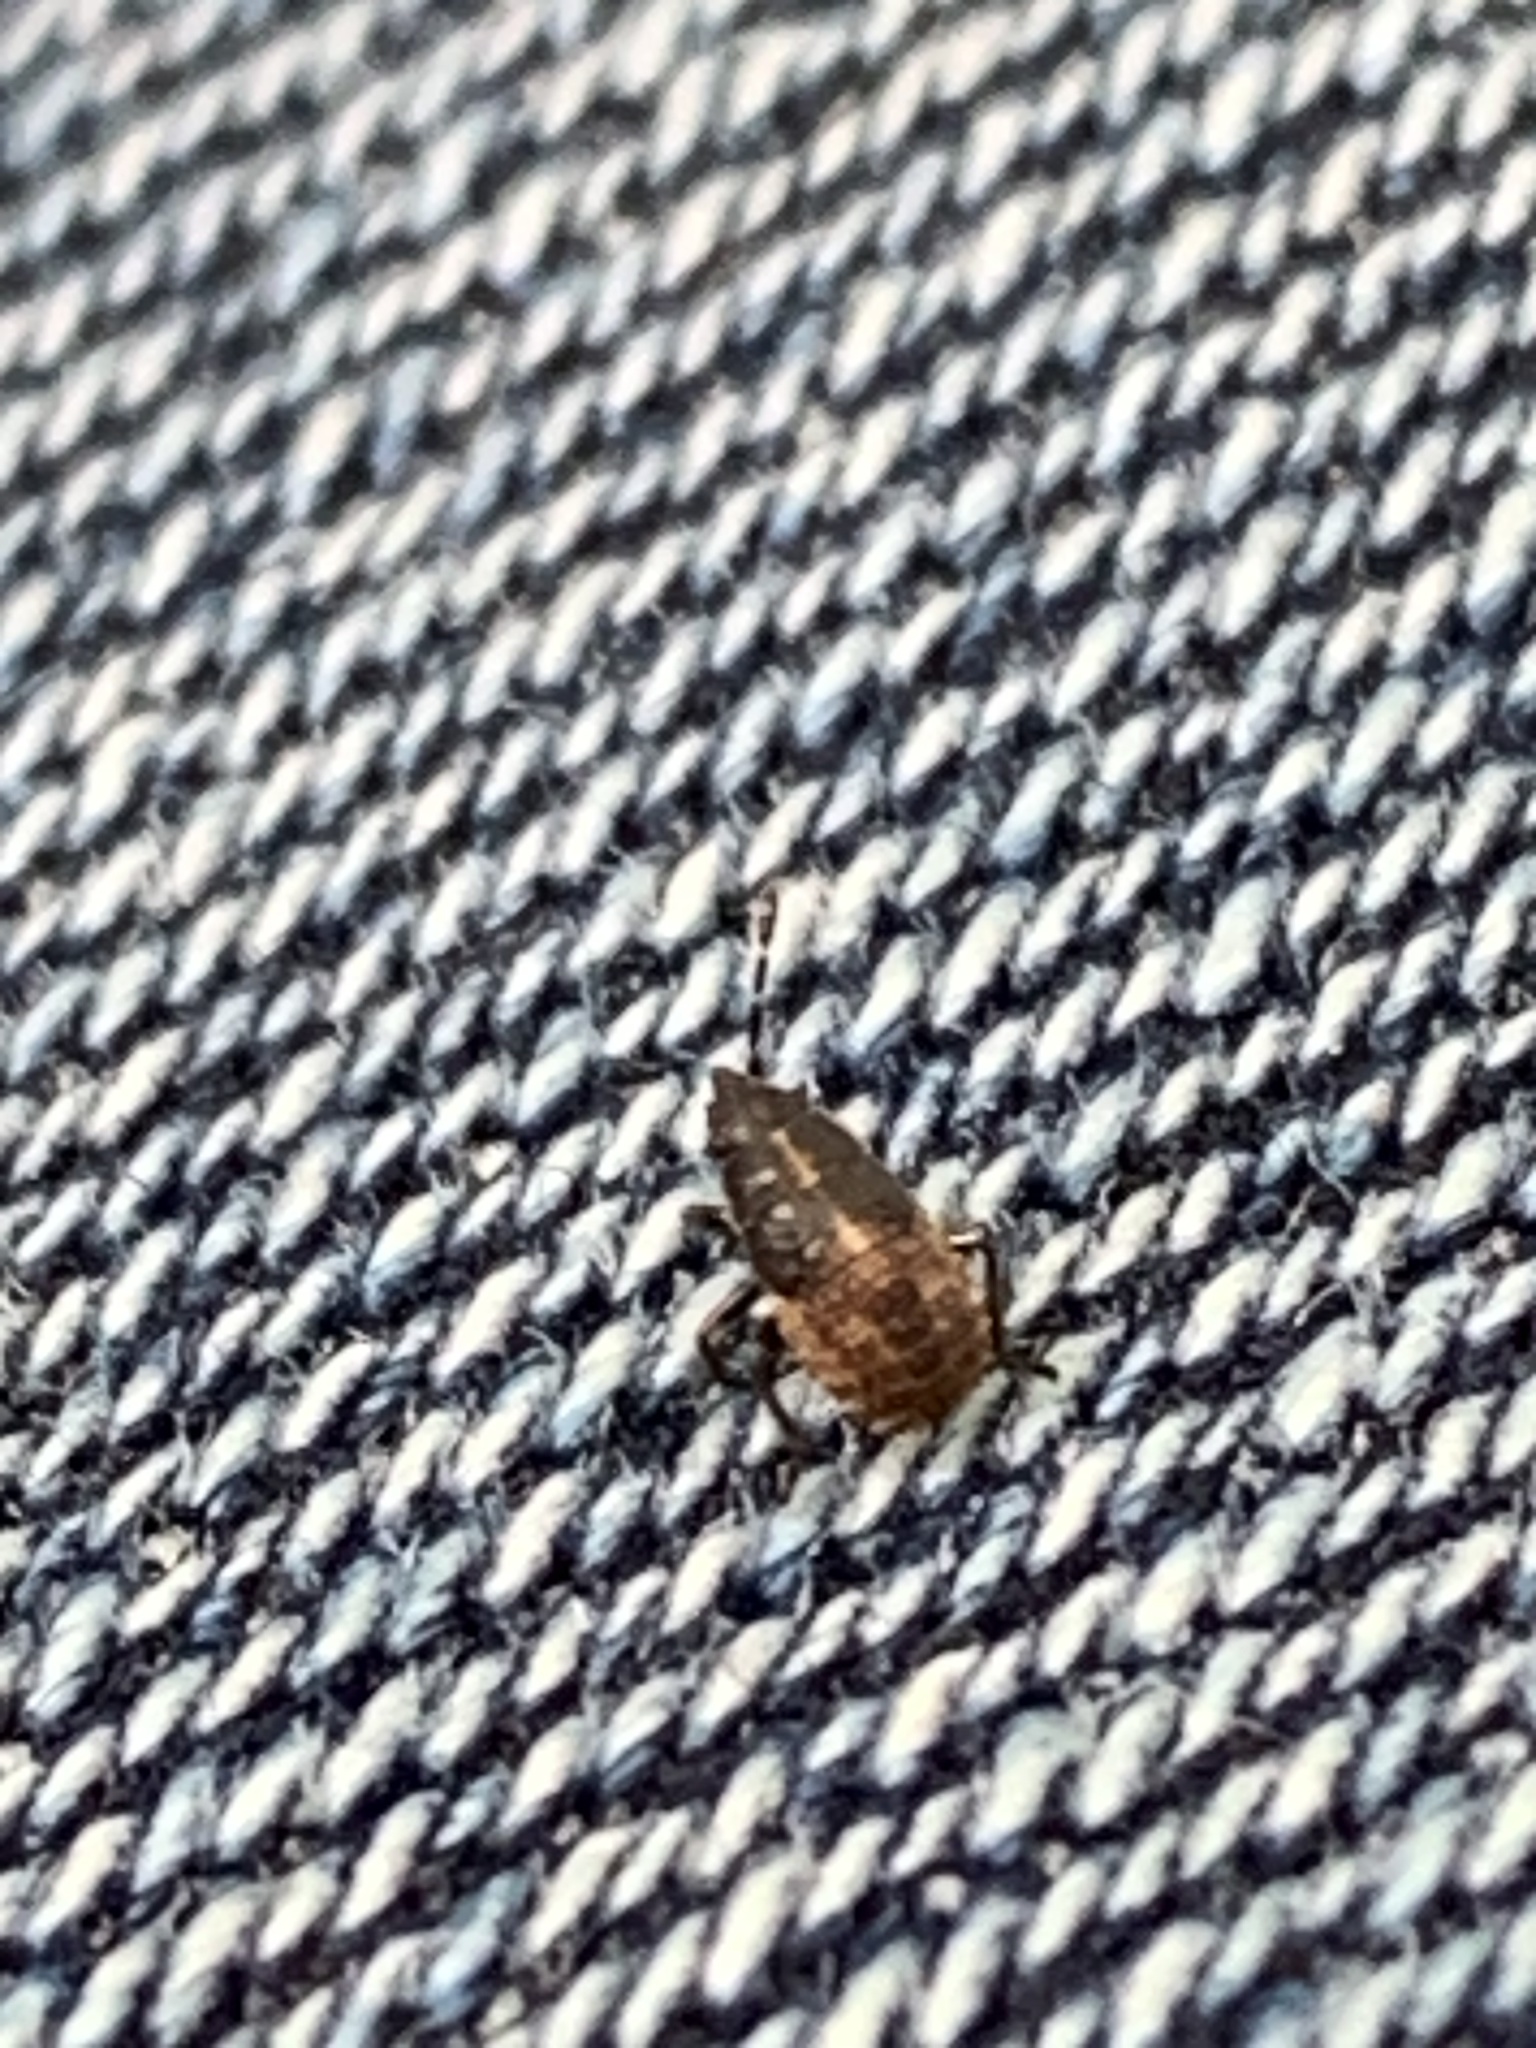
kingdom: Animalia
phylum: Arthropoda
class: Insecta
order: Hemiptera
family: Lygaeidae
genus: Kleidocerys
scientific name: Kleidocerys resedae
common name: Birch catkin bug
